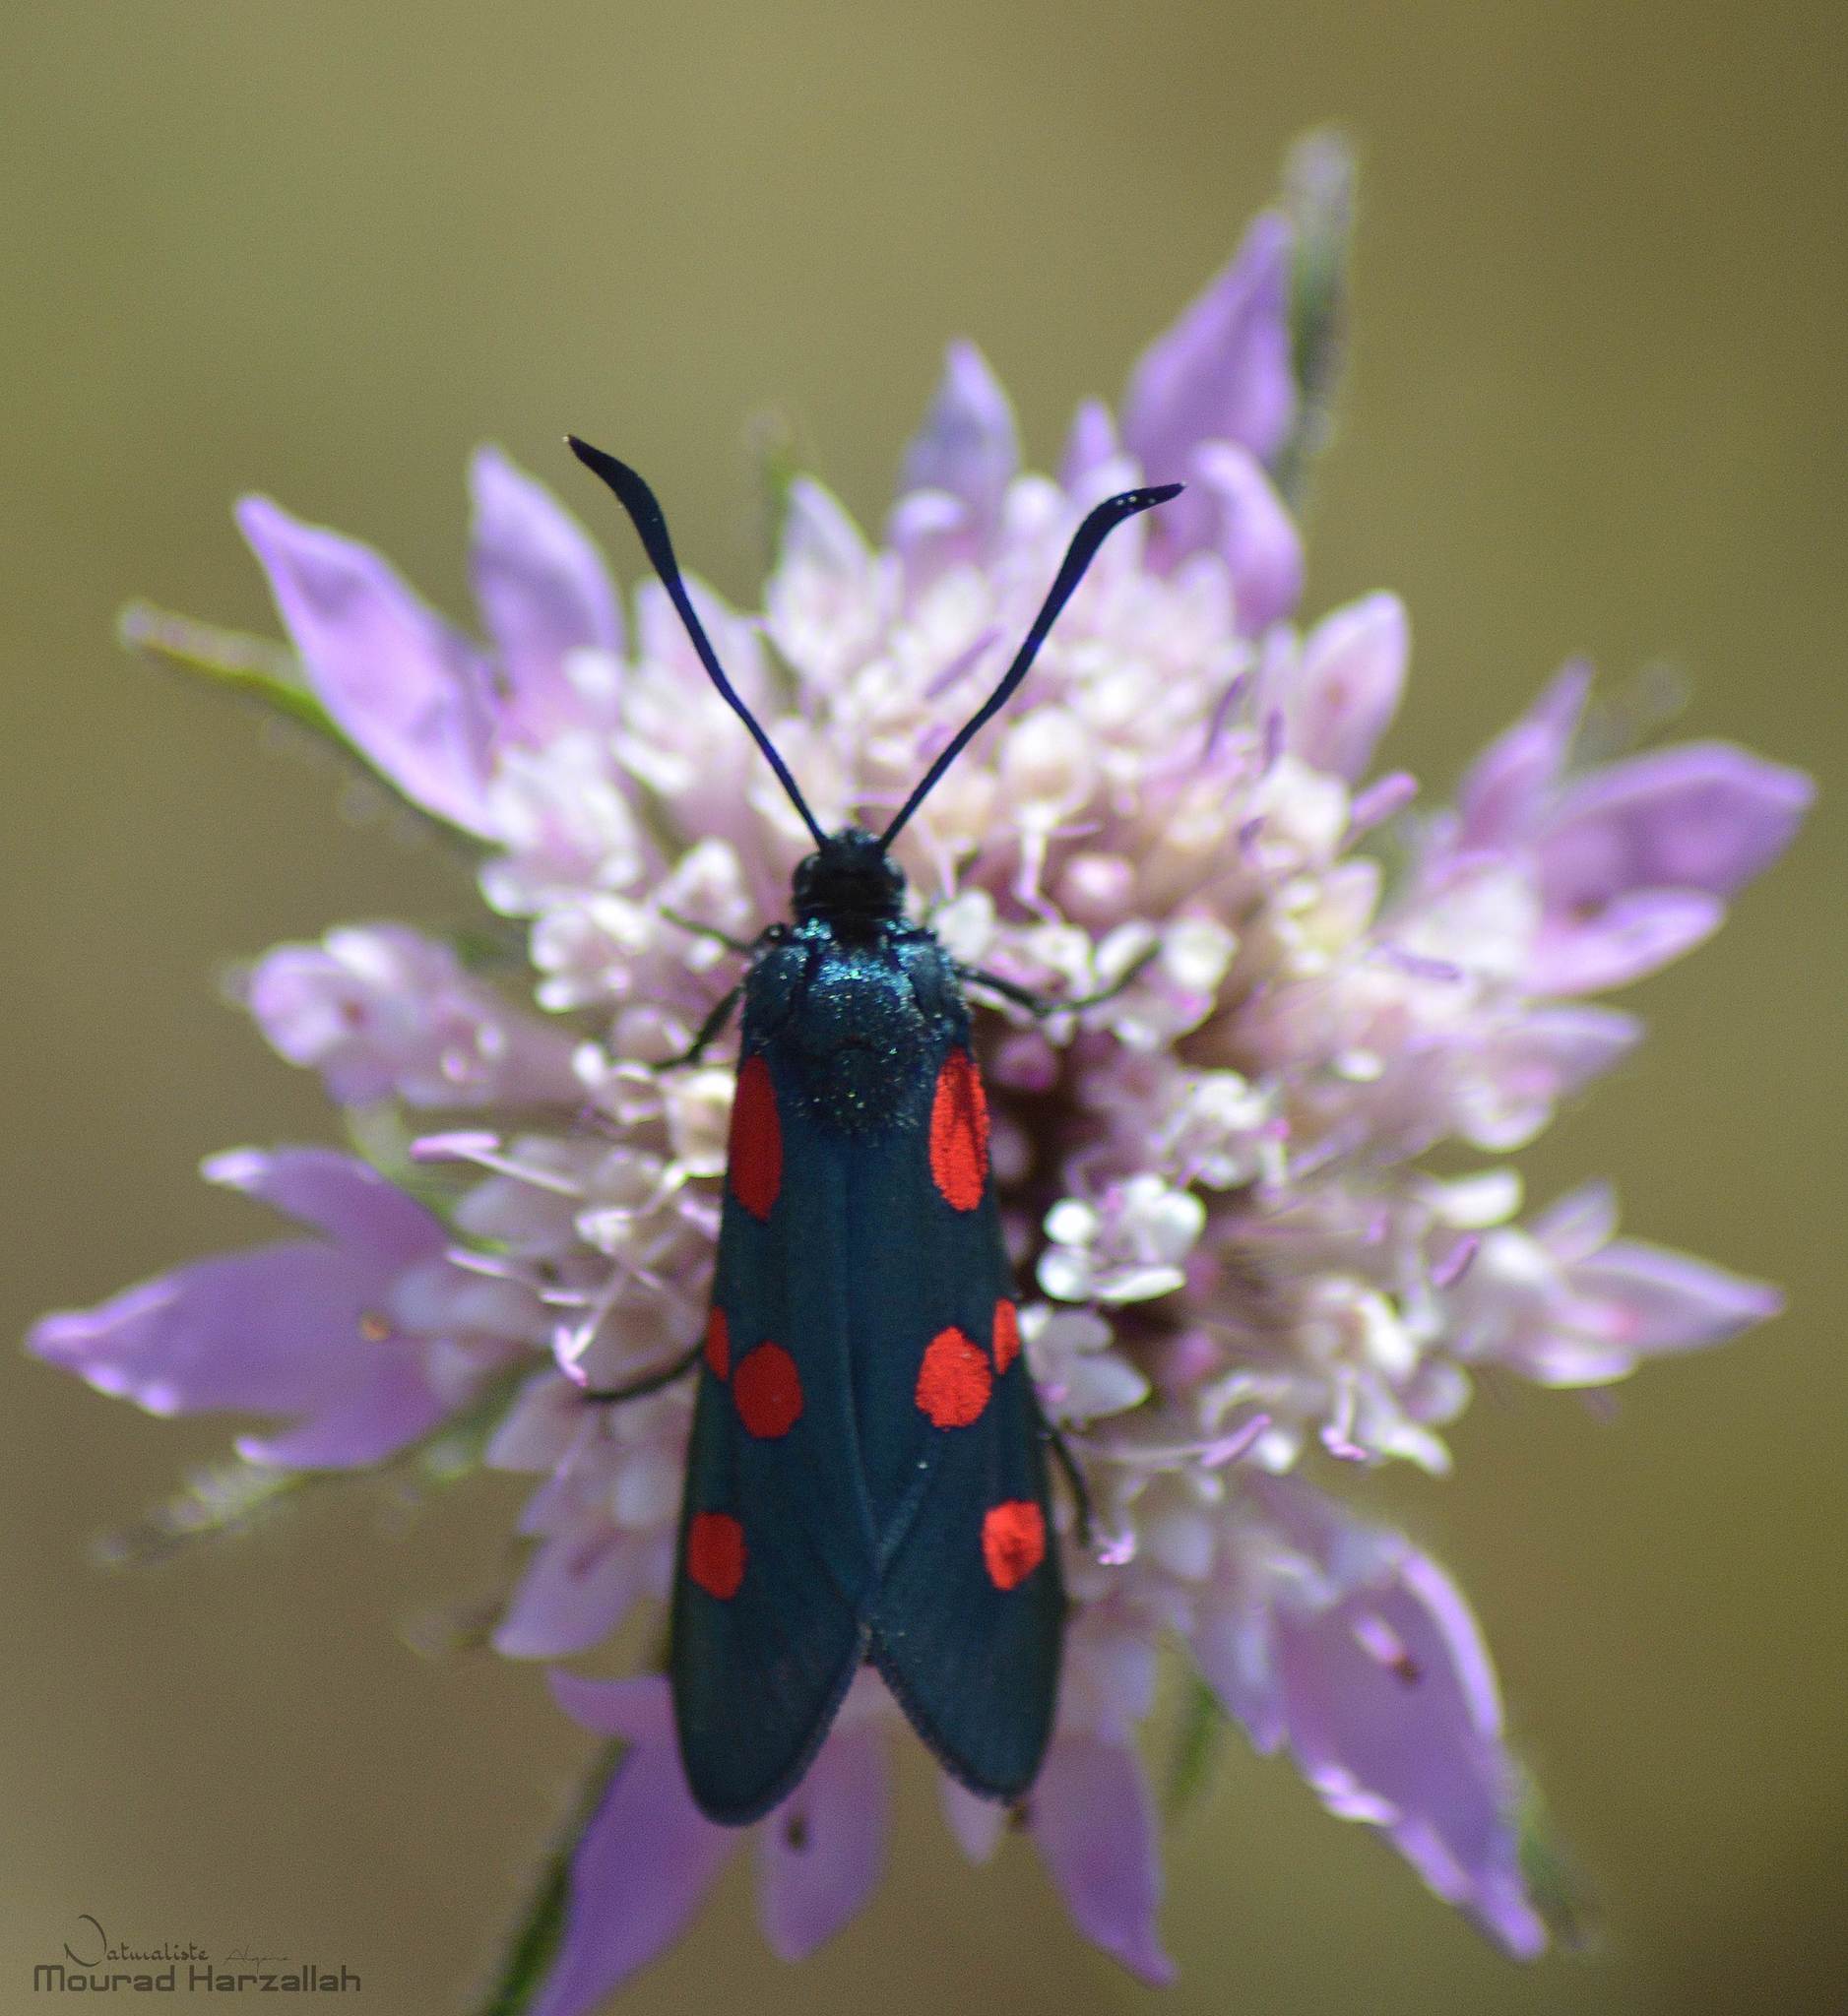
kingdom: Animalia
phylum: Arthropoda
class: Insecta
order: Lepidoptera
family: Zygaenidae
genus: Zygaena
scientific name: Zygaena trifolii
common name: Five-spot burnet
